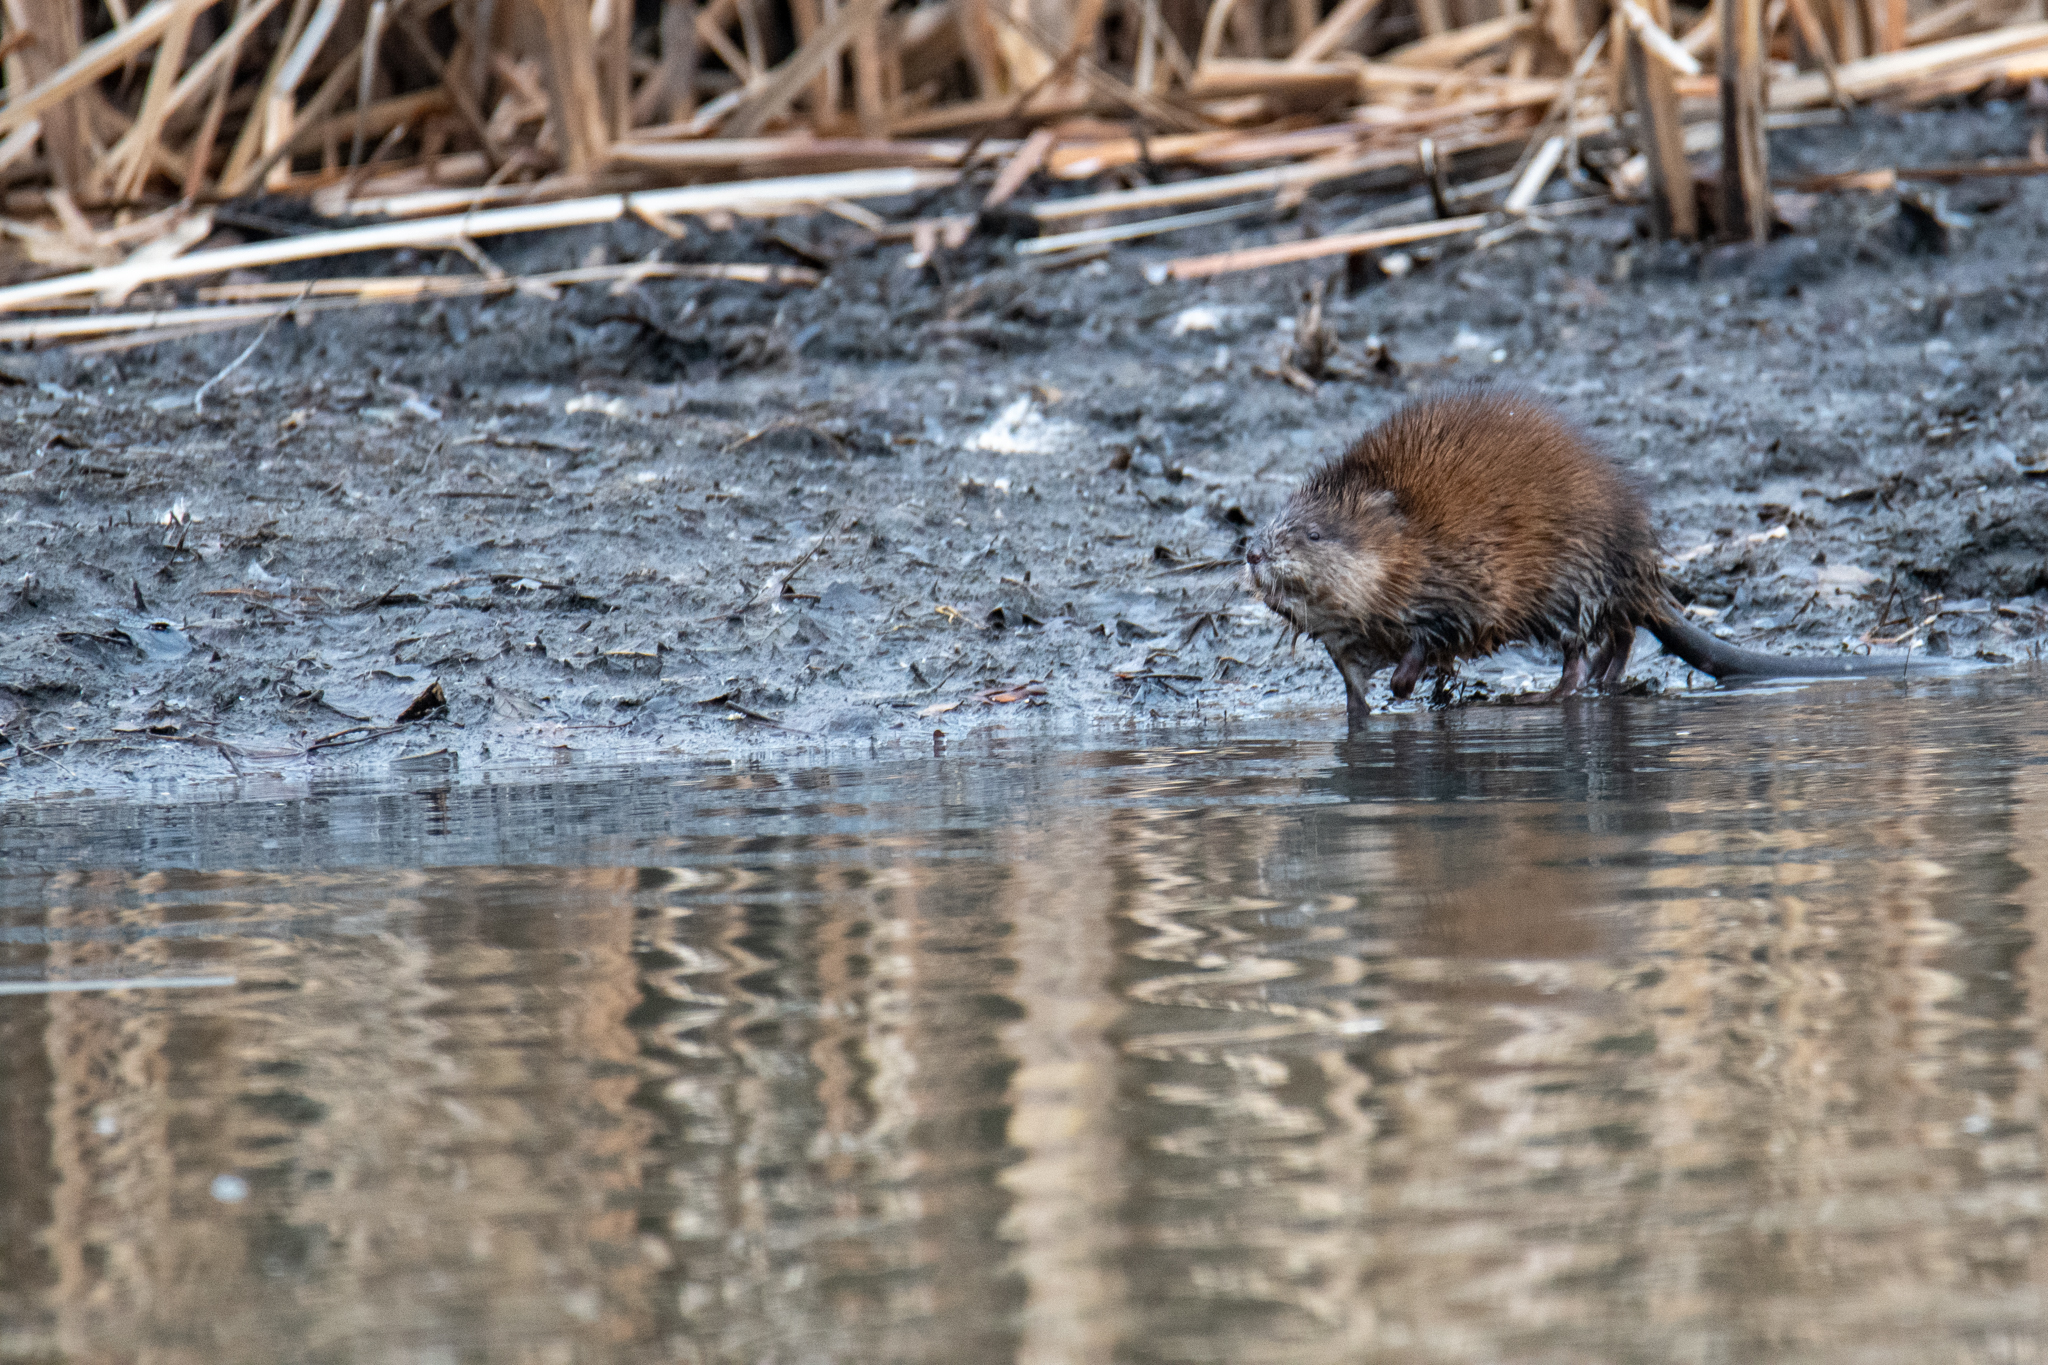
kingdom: Animalia
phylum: Chordata
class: Mammalia
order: Rodentia
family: Cricetidae
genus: Ondatra
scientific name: Ondatra zibethicus
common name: Muskrat
